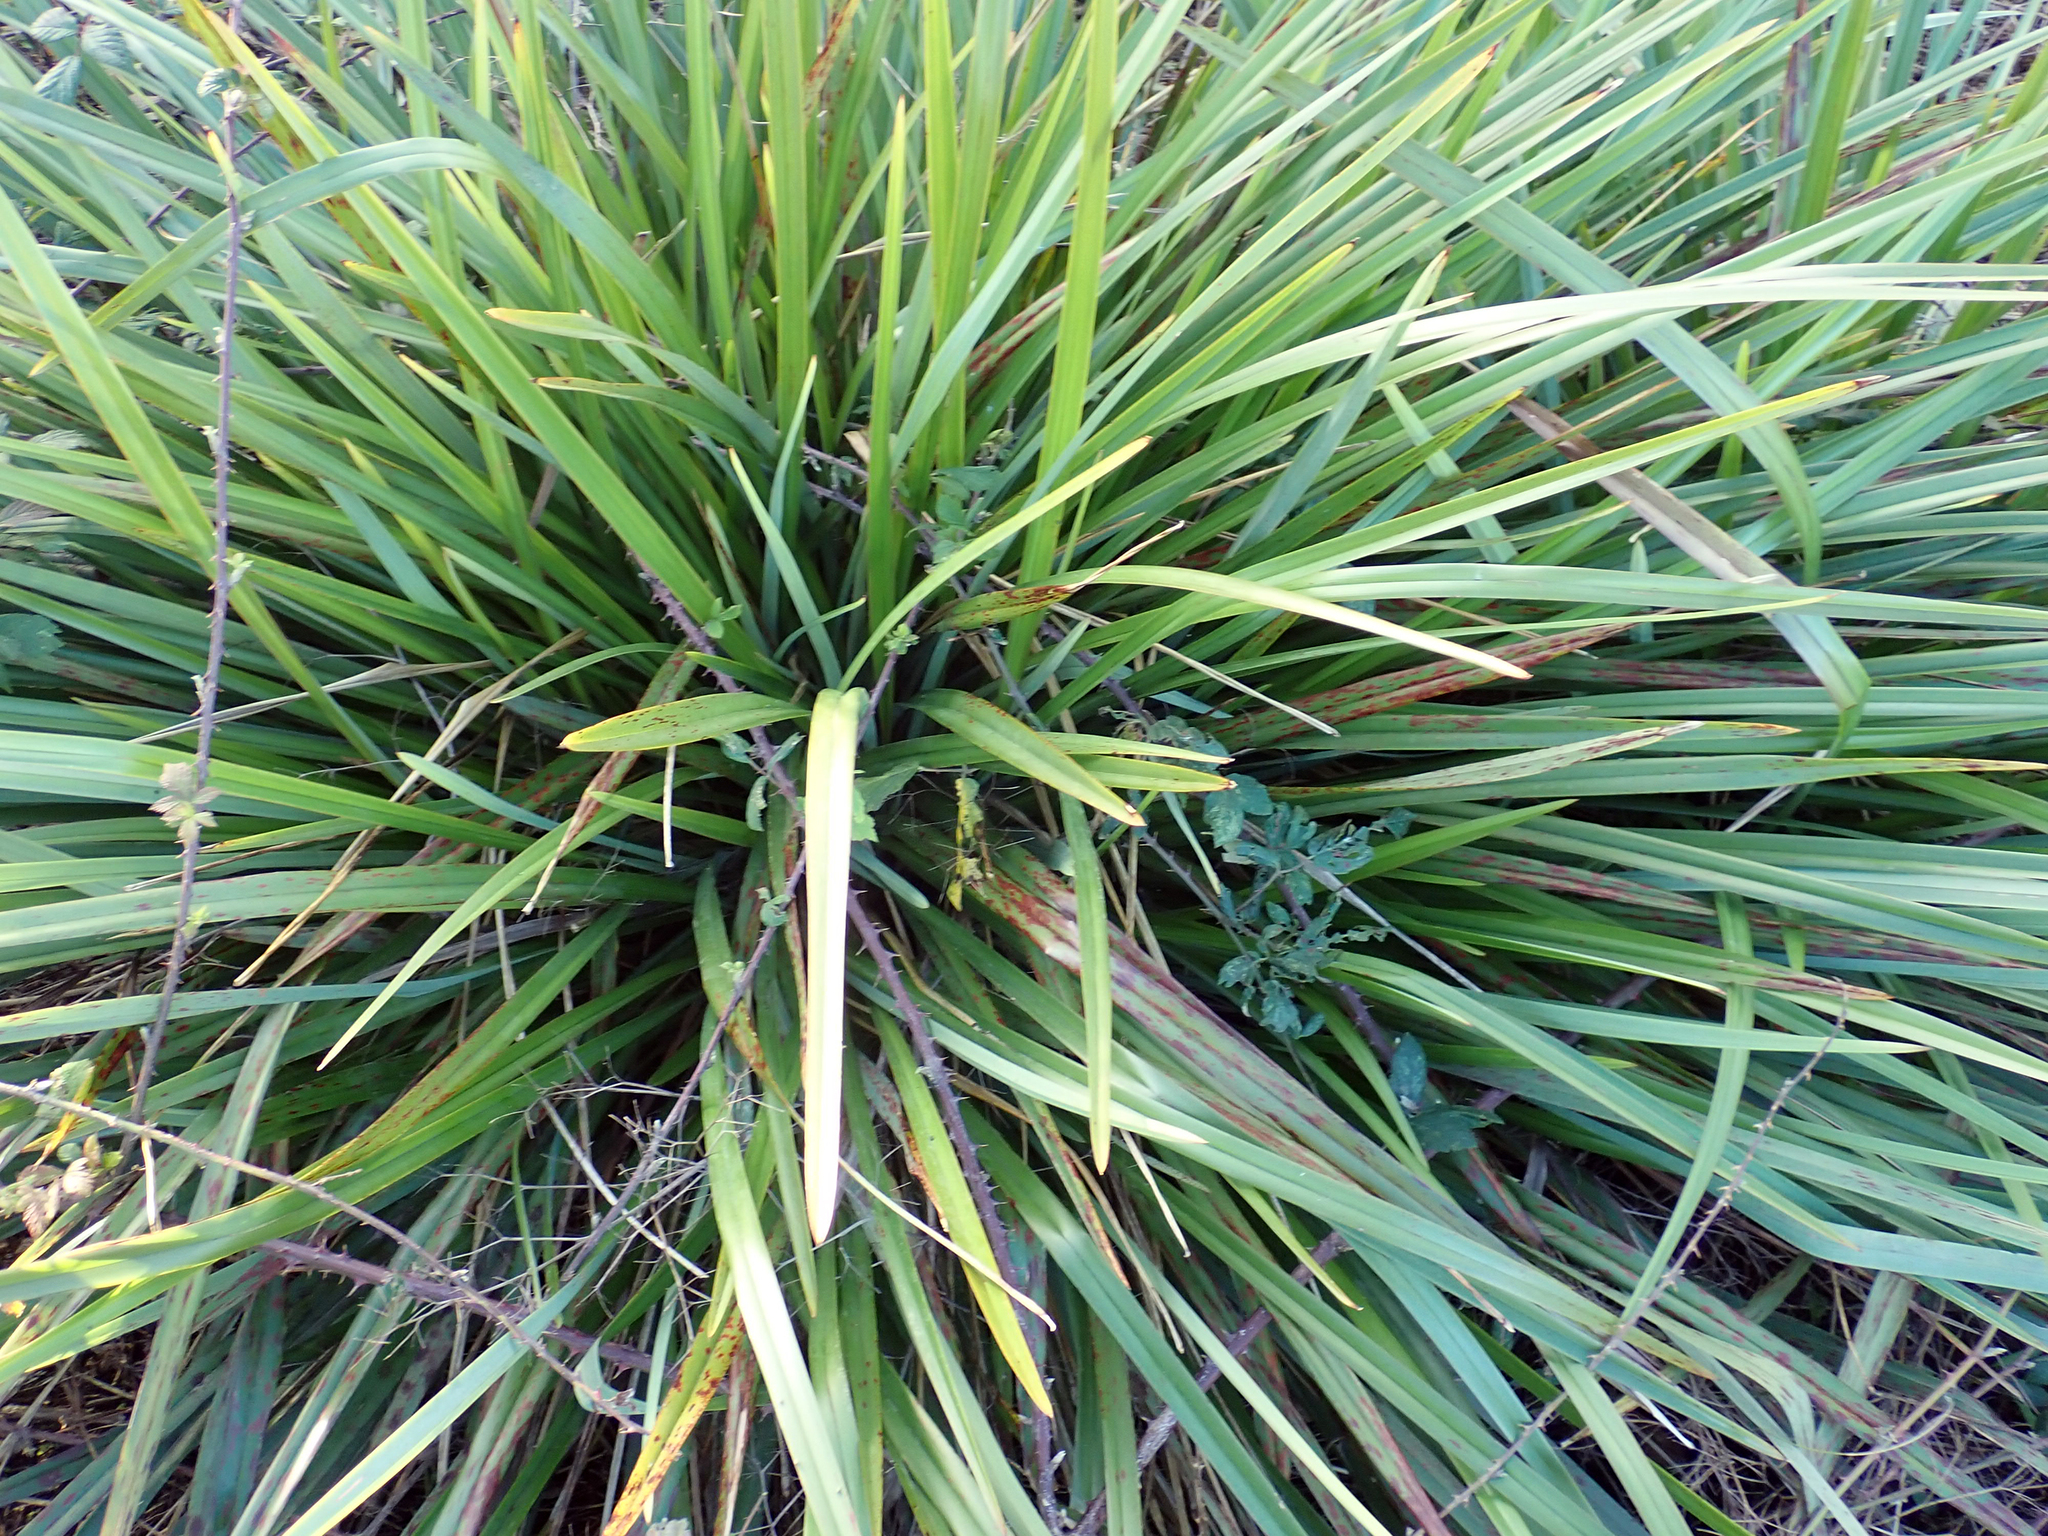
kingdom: Plantae
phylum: Tracheophyta
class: Liliopsida
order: Asparagales
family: Asphodelaceae
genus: Dianella
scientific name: Dianella haematica
